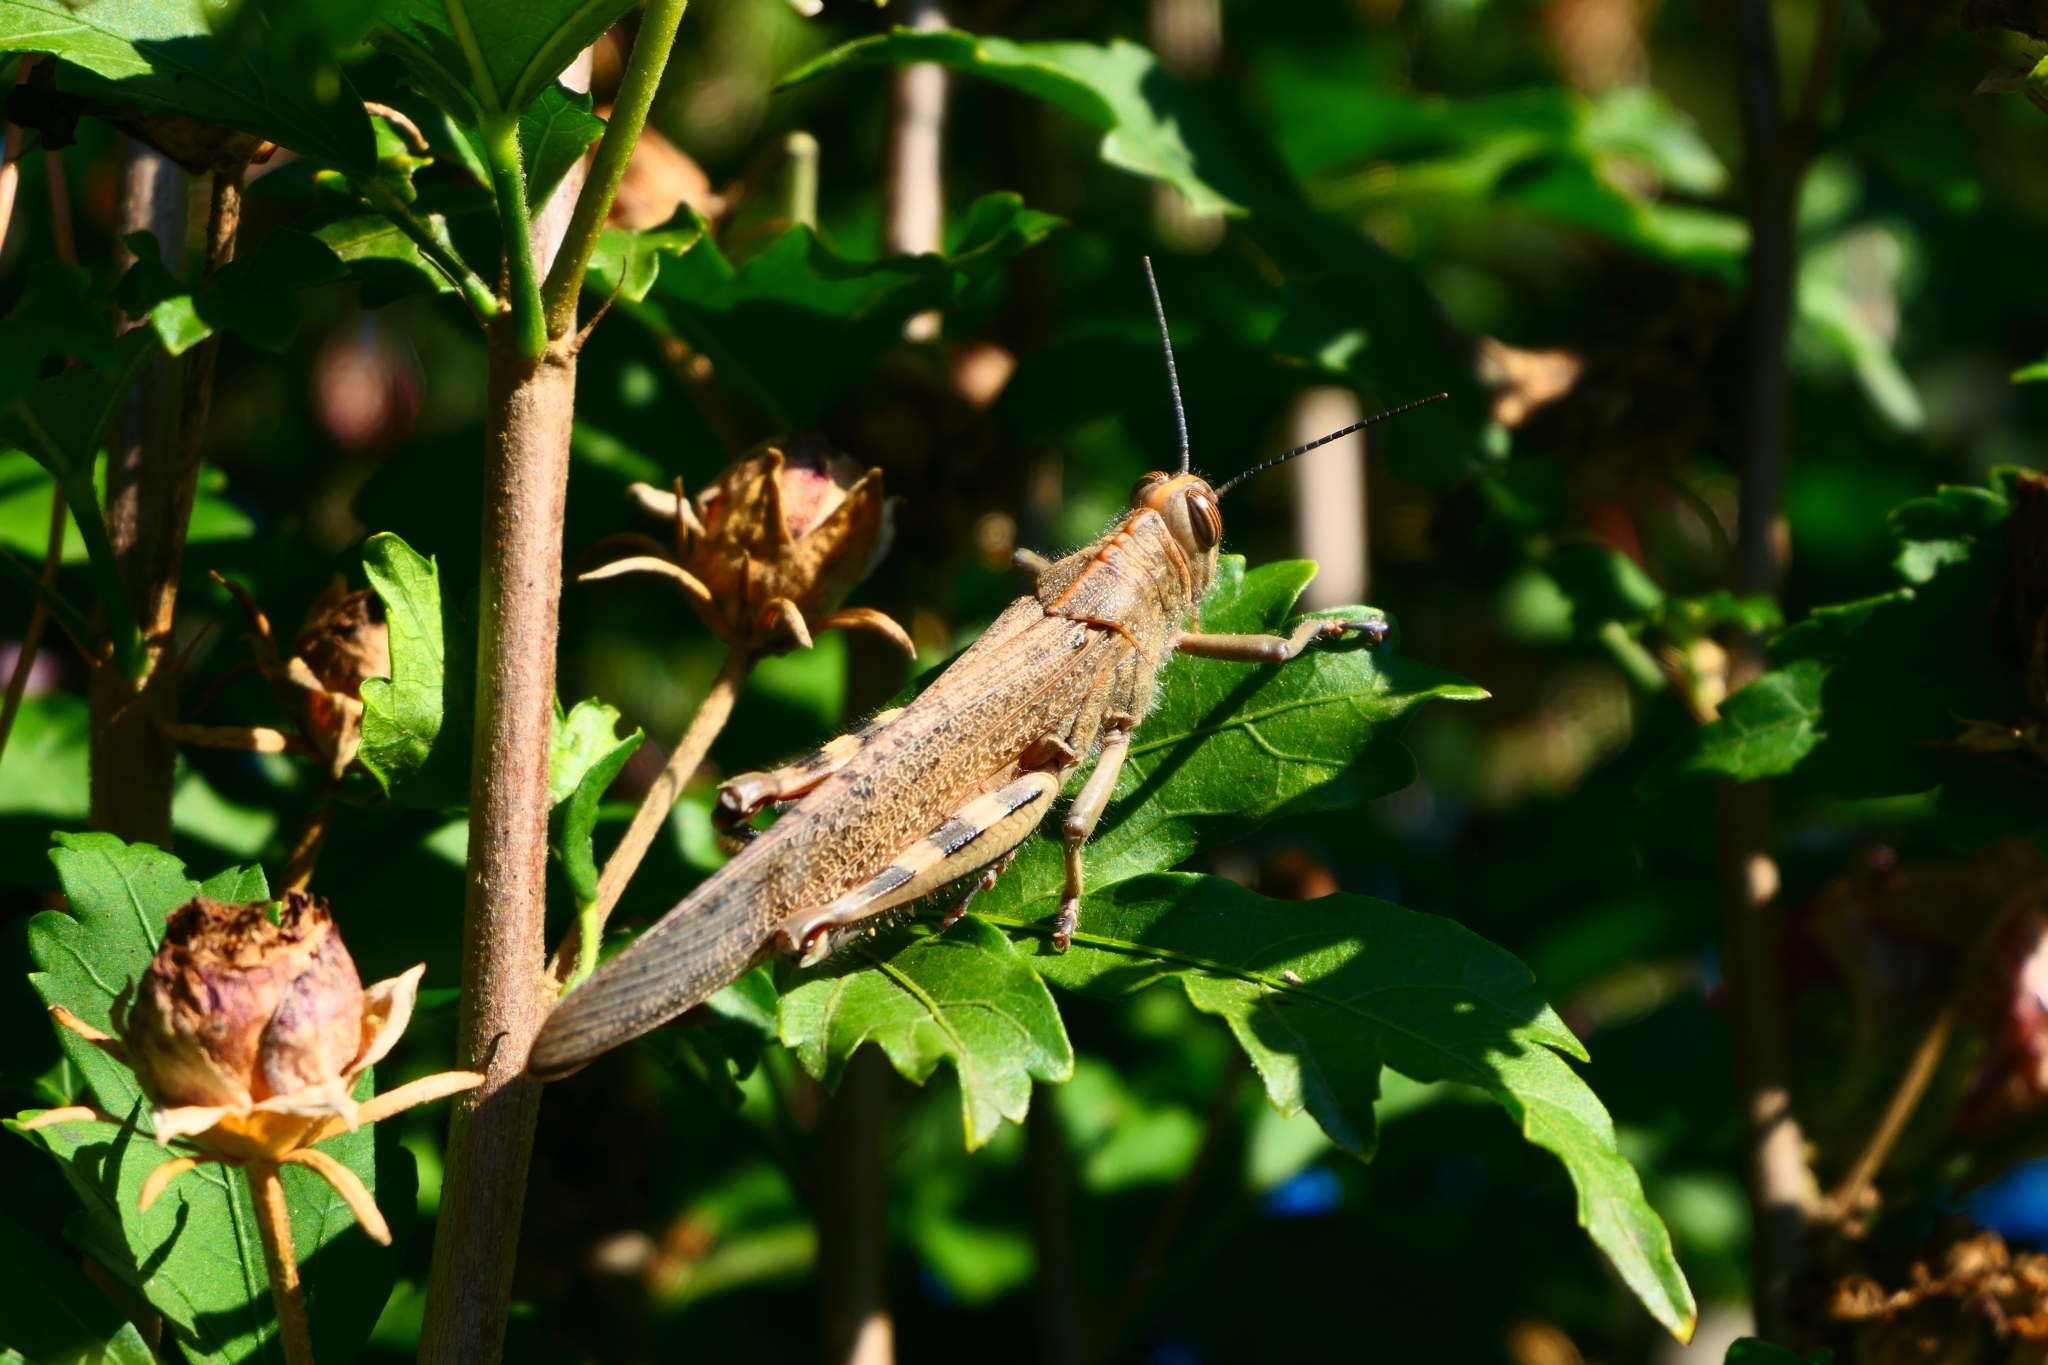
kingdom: Animalia
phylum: Arthropoda
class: Insecta
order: Orthoptera
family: Acrididae
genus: Anacridium
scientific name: Anacridium aegyptium
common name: Egyptian grasshopper
